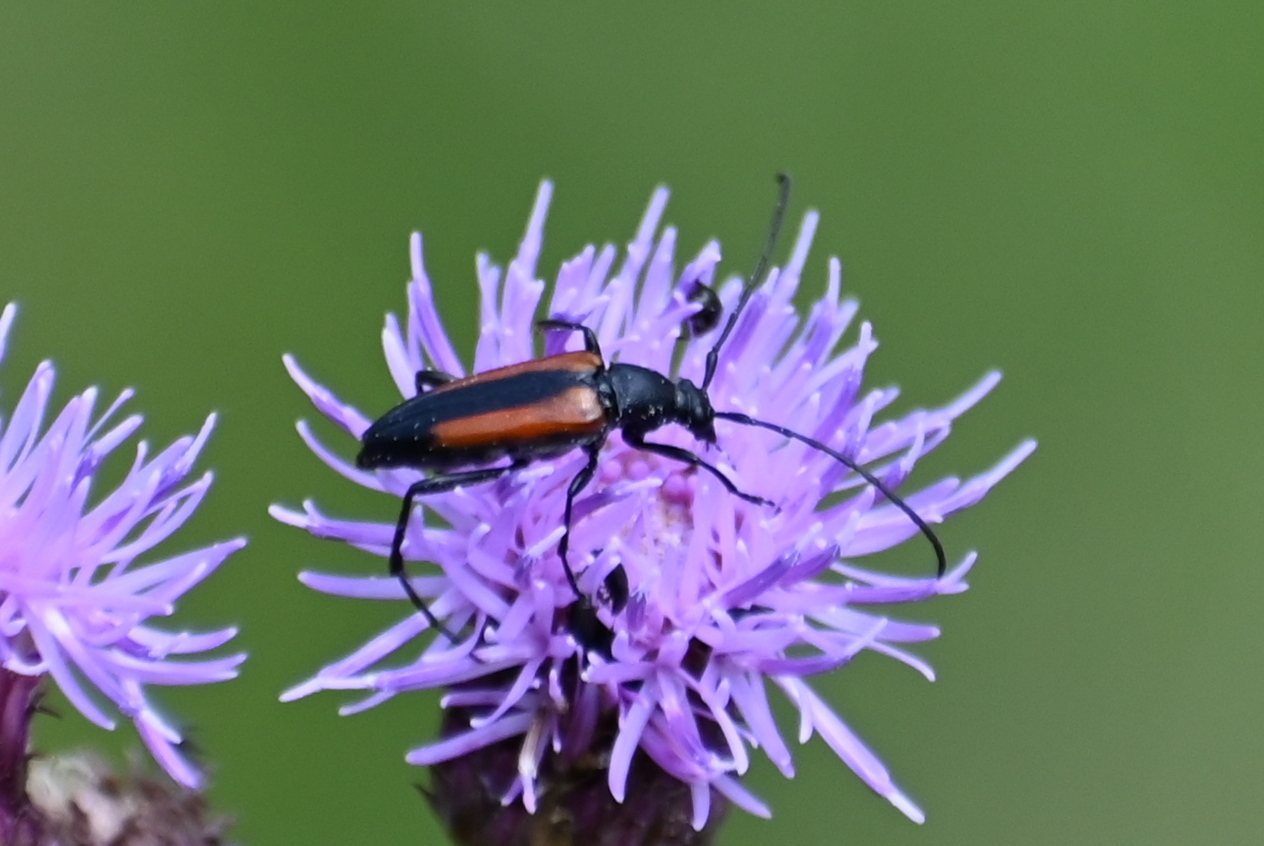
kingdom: Animalia
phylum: Arthropoda
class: Insecta
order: Coleoptera
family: Cerambycidae
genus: Stenurella
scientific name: Stenurella melanura
